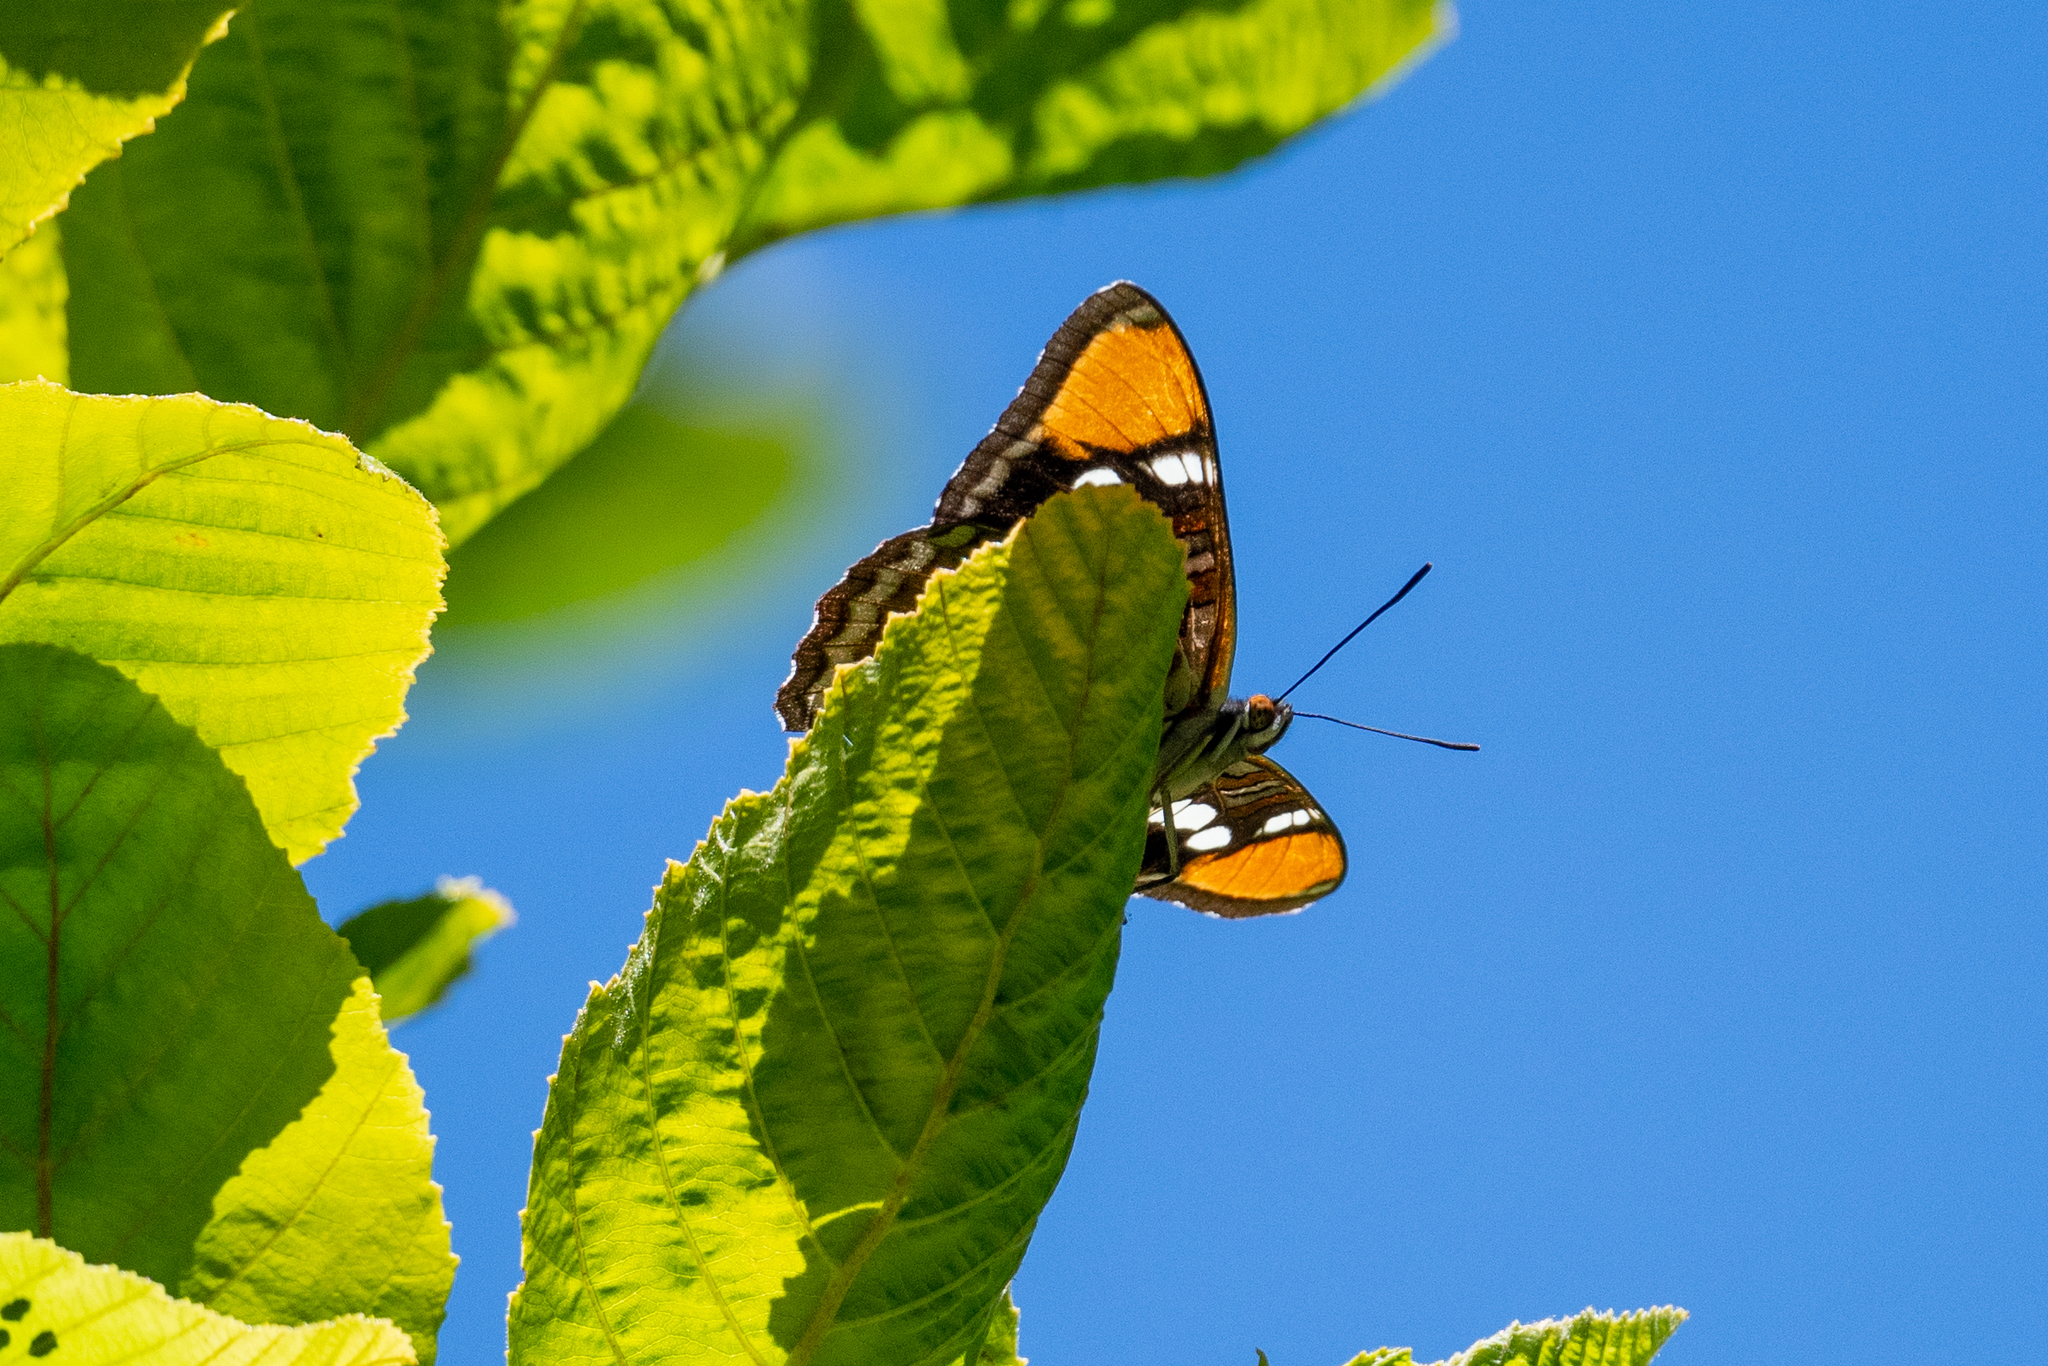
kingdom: Animalia
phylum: Arthropoda
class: Insecta
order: Lepidoptera
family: Nymphalidae
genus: Limenitis
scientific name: Limenitis bredowii
